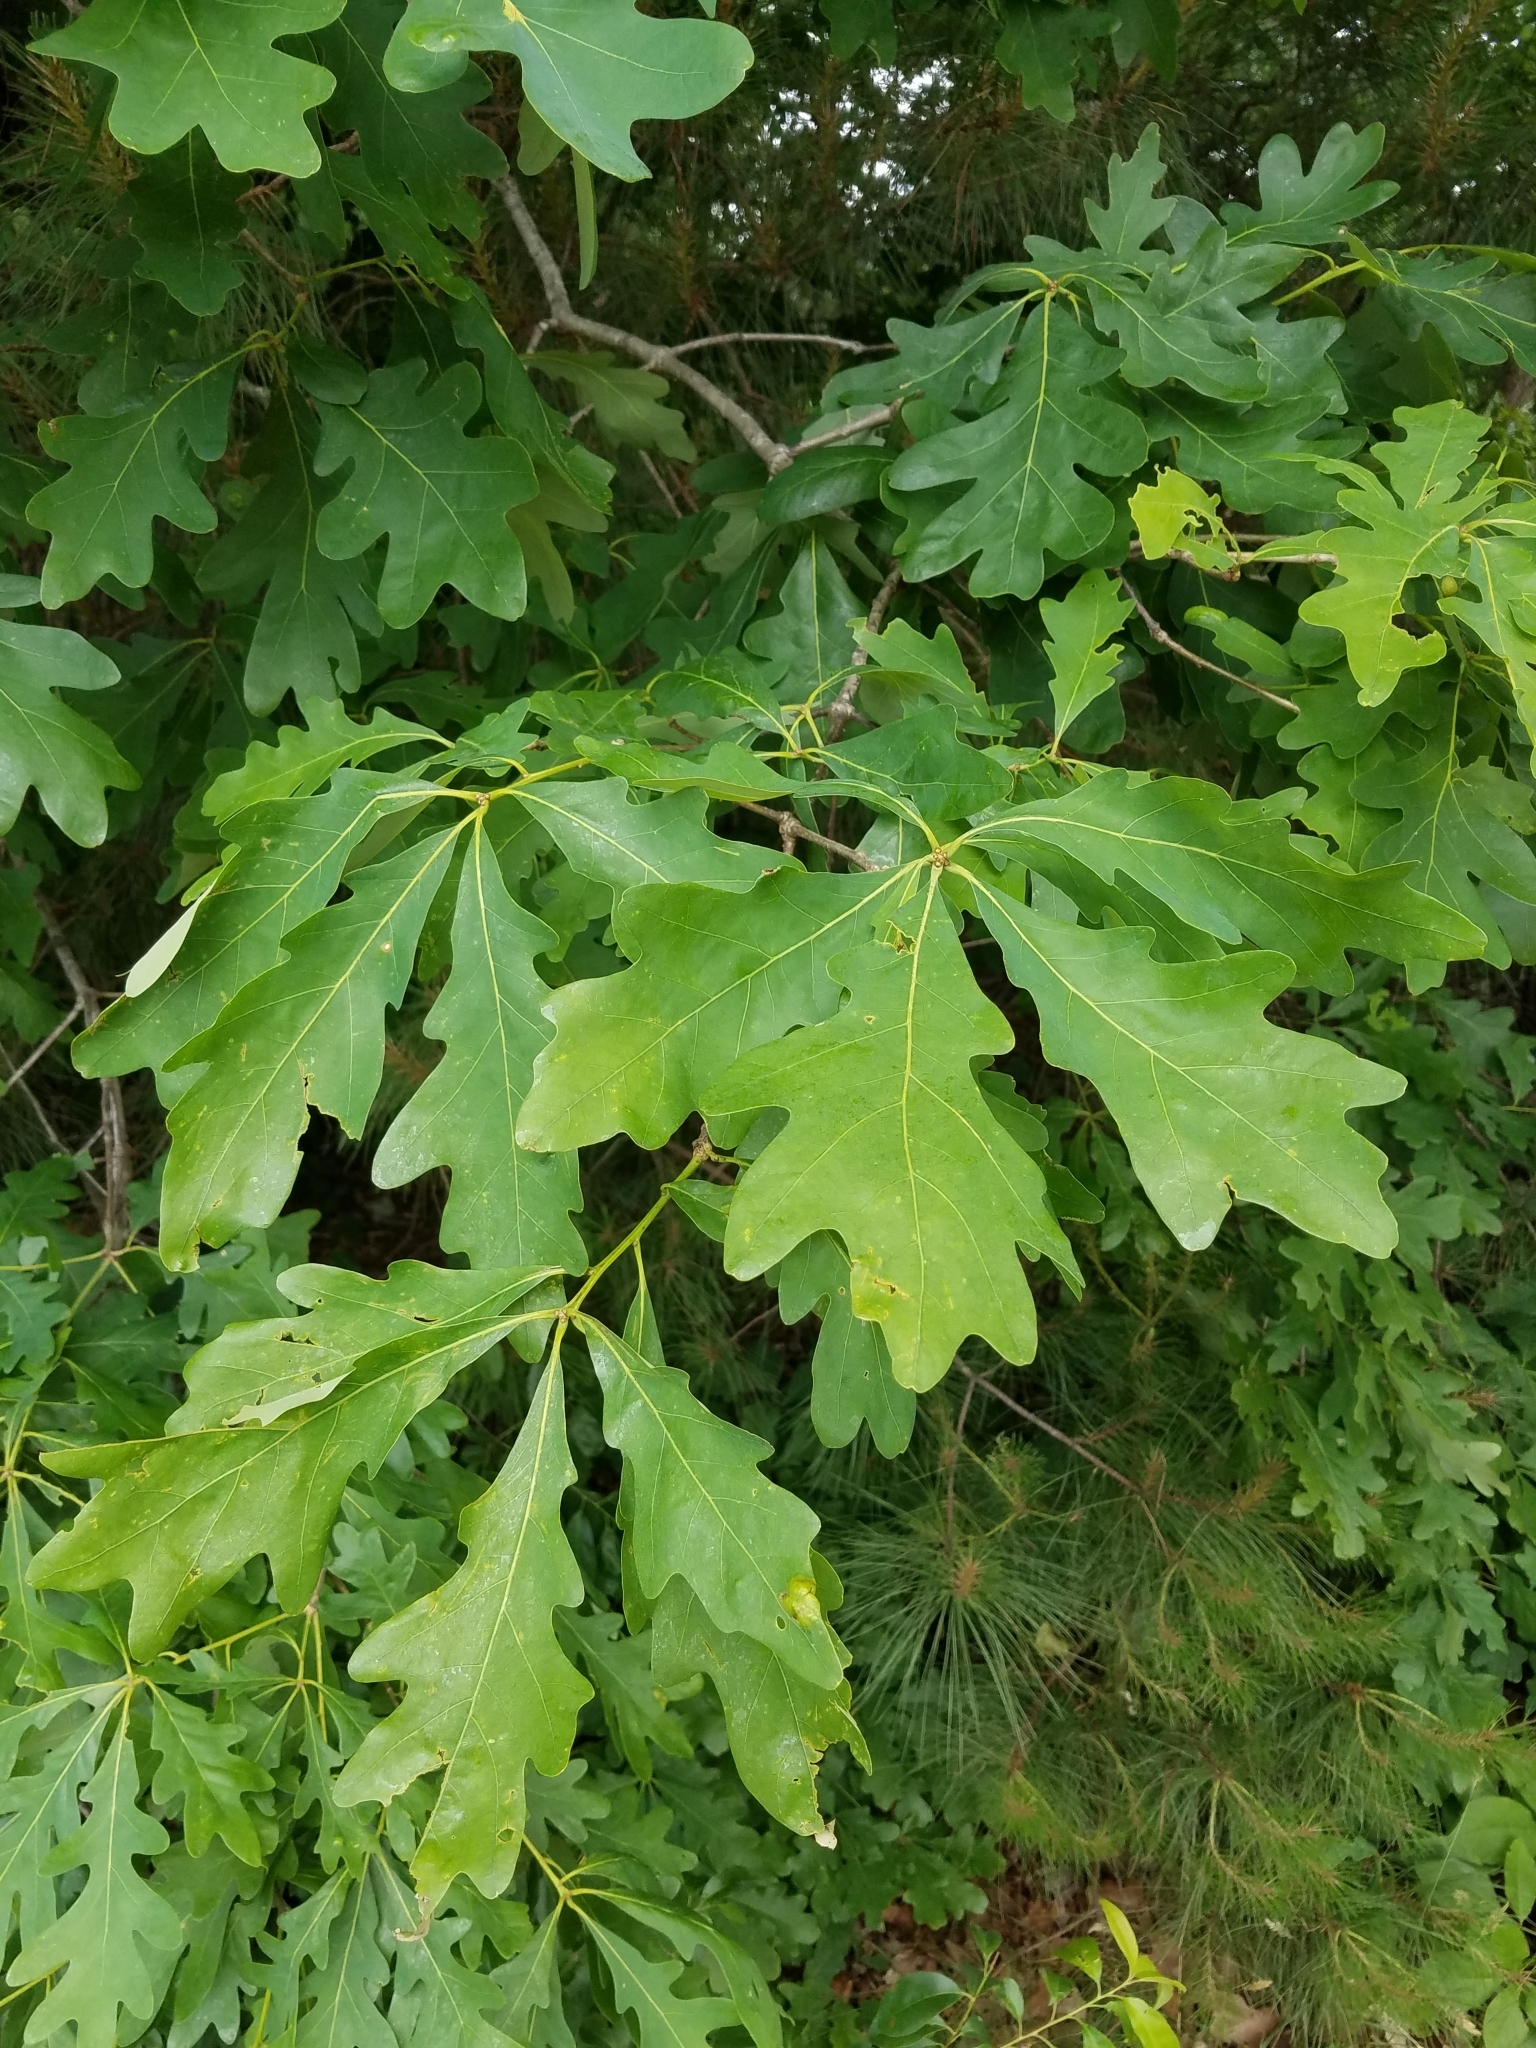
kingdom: Plantae
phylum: Tracheophyta
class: Magnoliopsida
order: Fagales
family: Fagaceae
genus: Quercus
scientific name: Quercus alba
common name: White oak
